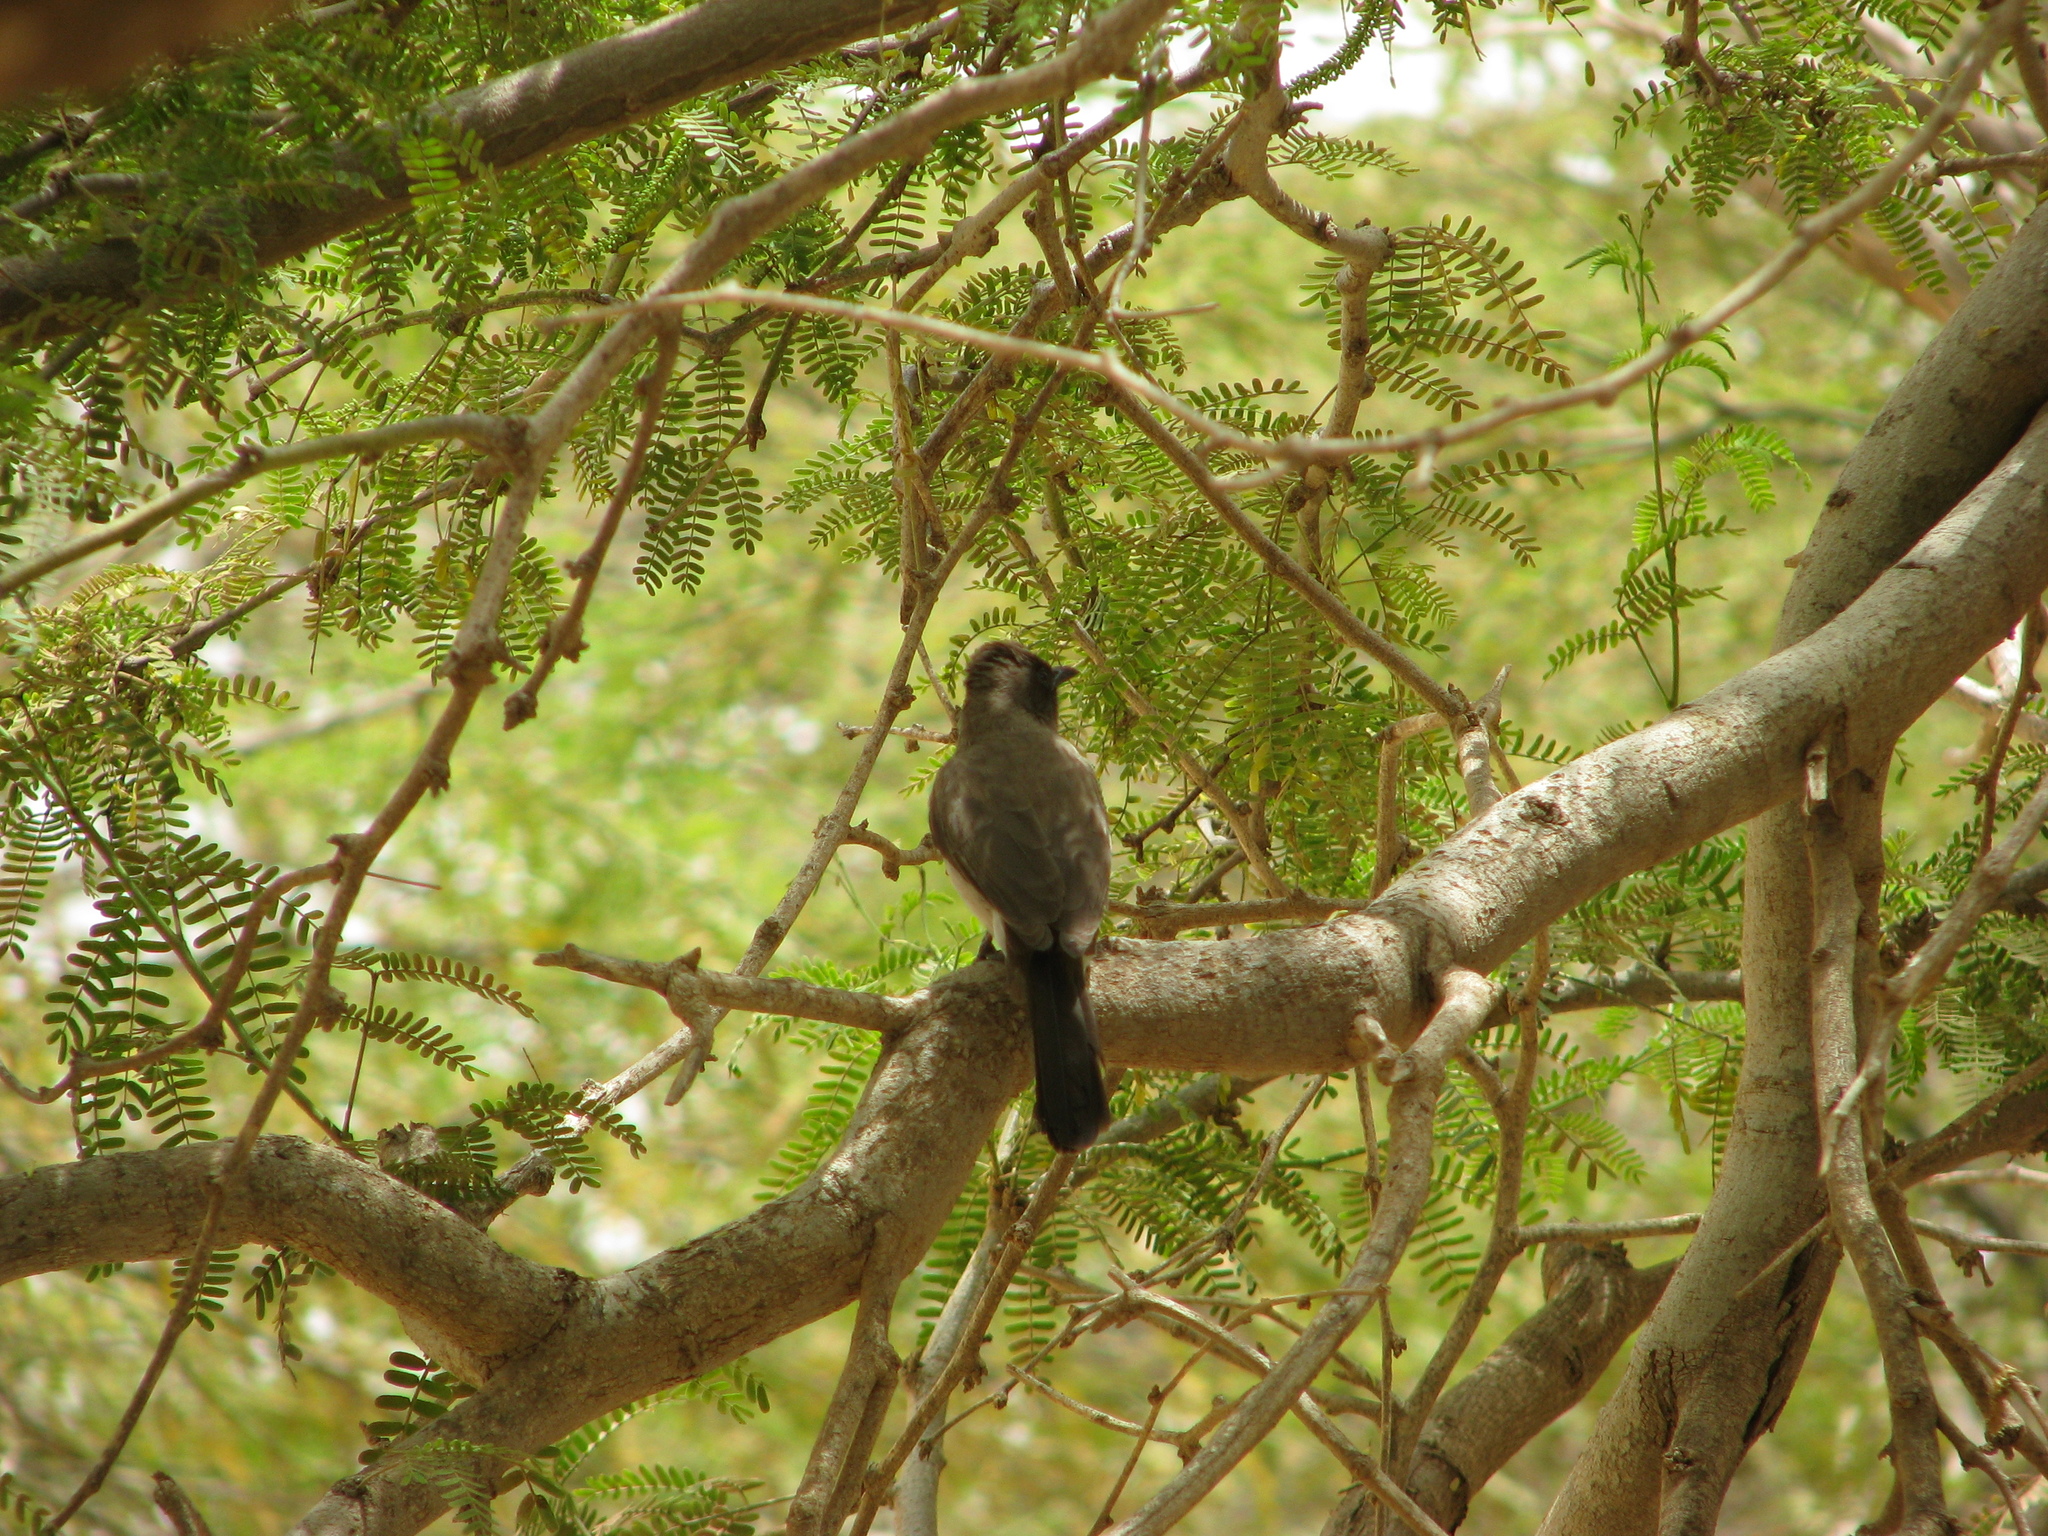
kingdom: Animalia
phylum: Chordata
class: Aves
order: Passeriformes
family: Pycnonotidae
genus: Pycnonotus
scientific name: Pycnonotus barbatus
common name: Common bulbul
